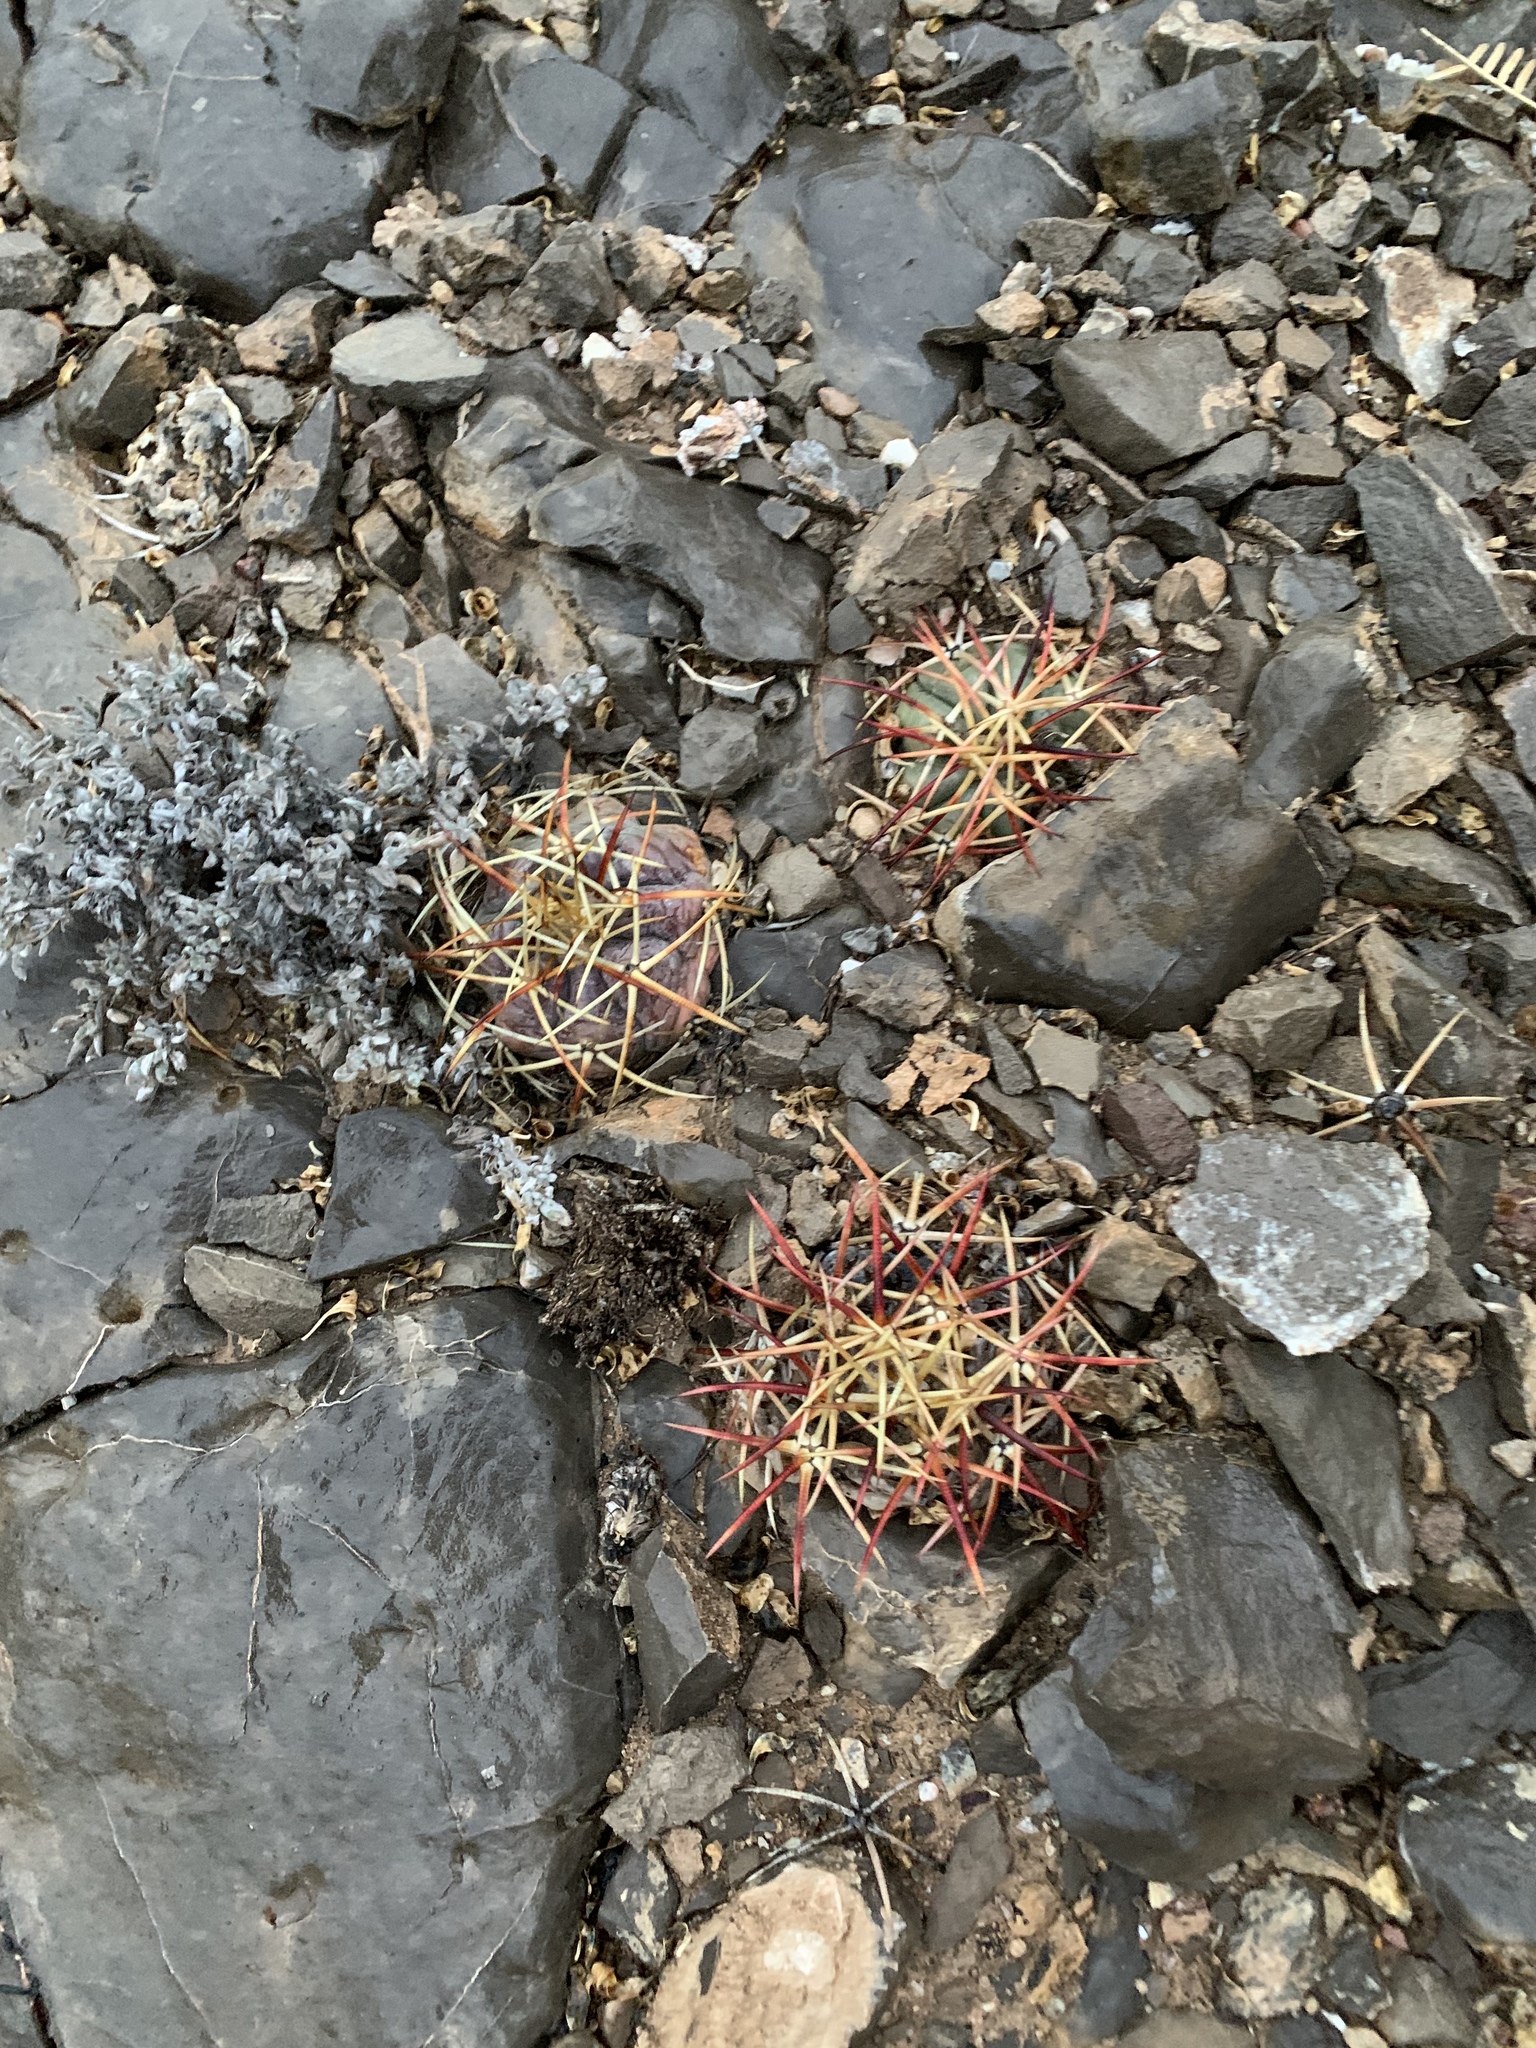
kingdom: Plantae
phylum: Tracheophyta
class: Magnoliopsida
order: Caryophyllales
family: Cactaceae
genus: Echinocactus
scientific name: Echinocactus horizonthalonius
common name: Devilshead
